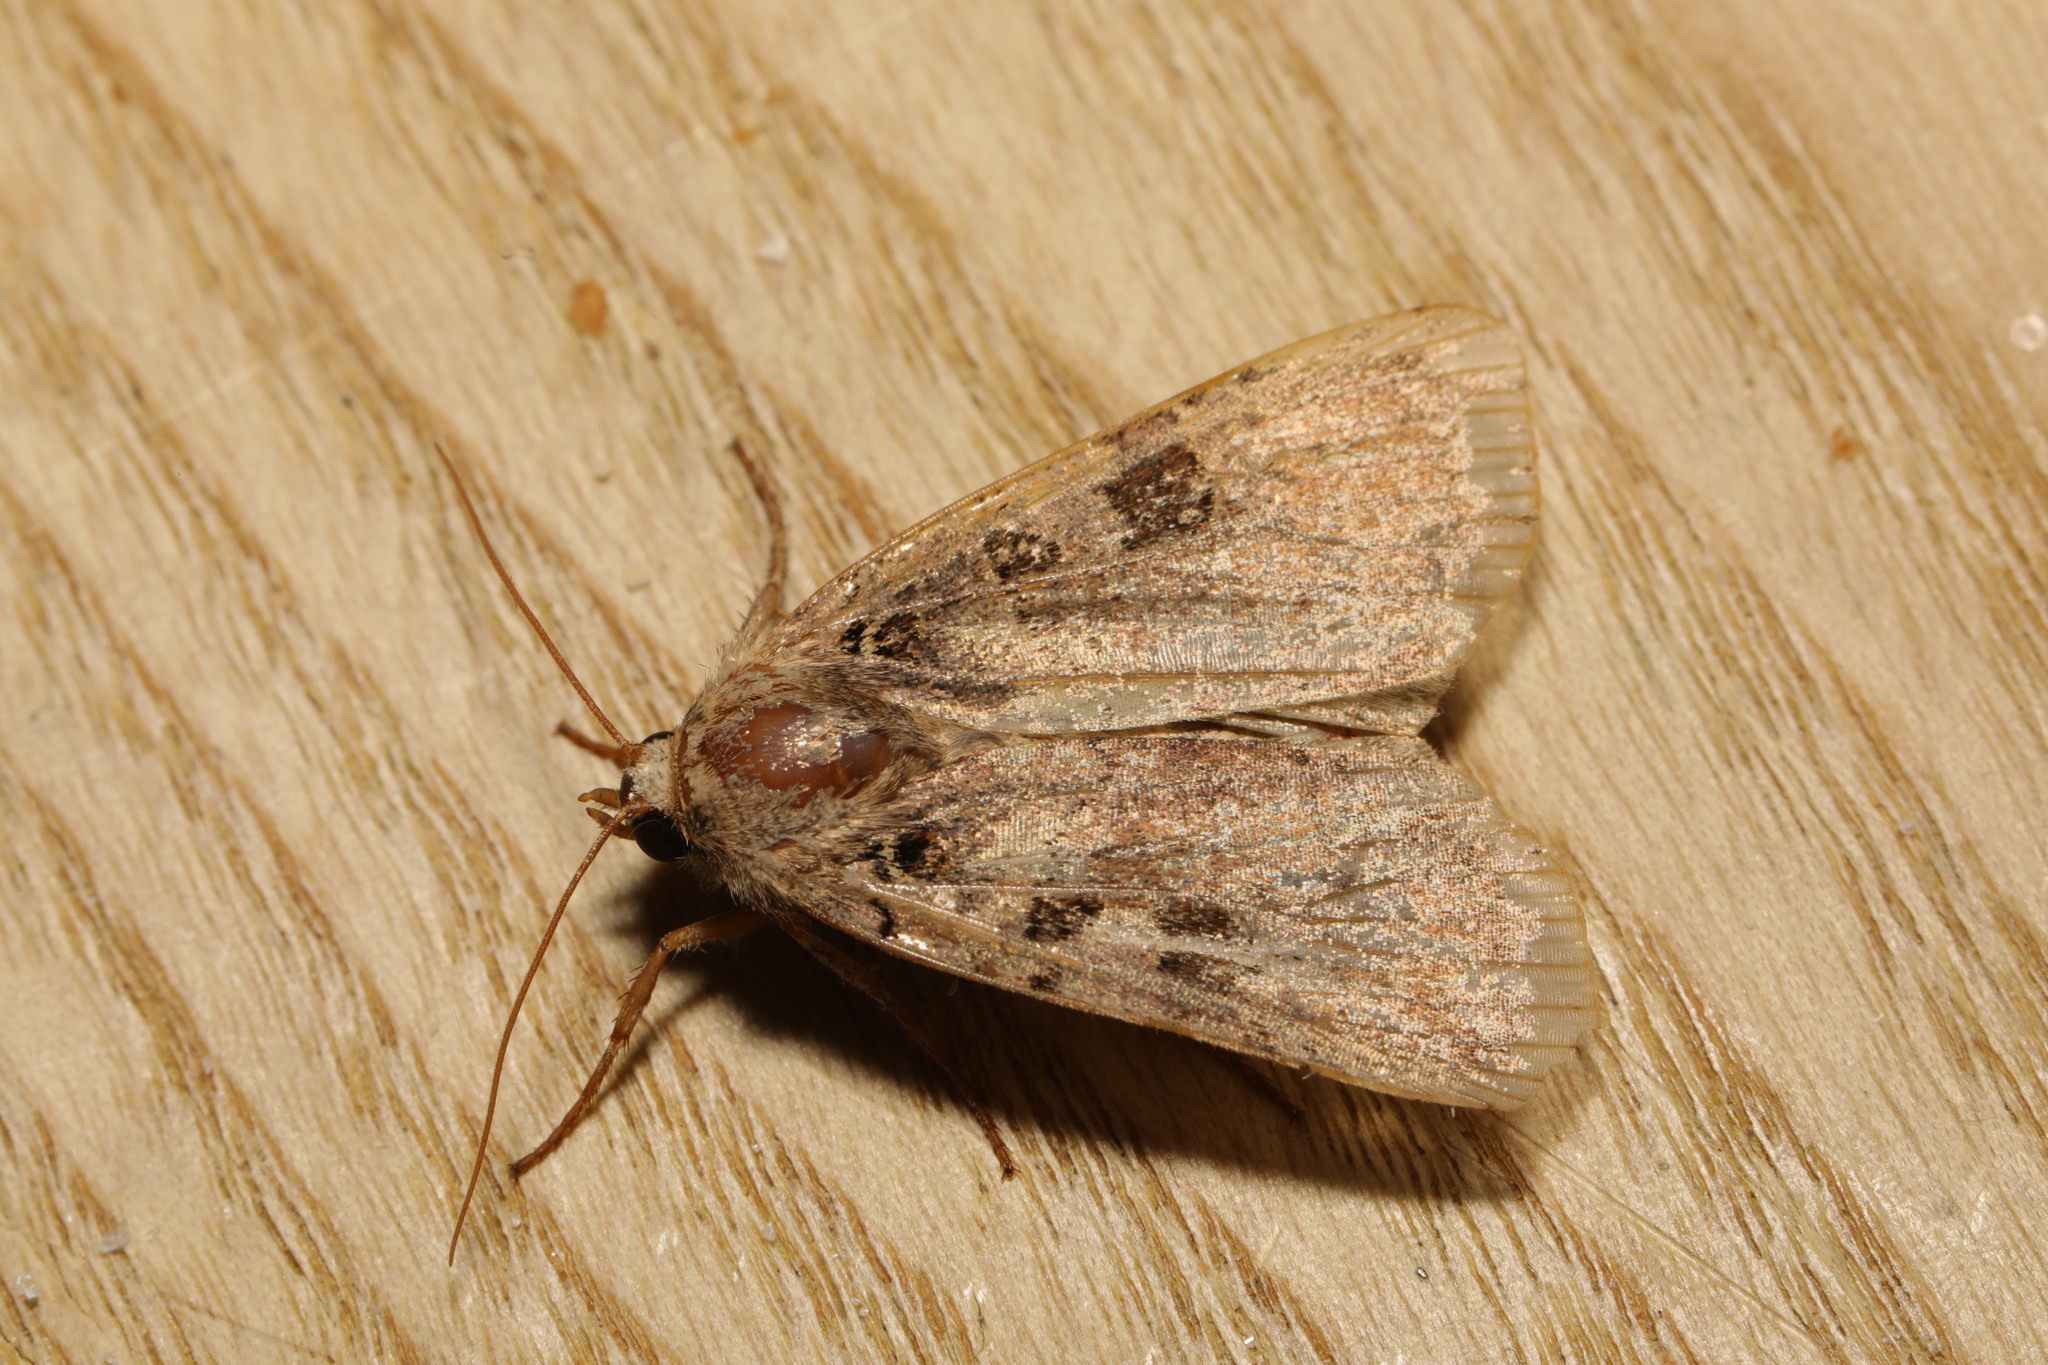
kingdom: Animalia
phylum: Arthropoda
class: Insecta
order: Lepidoptera
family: Noctuidae
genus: Xestia
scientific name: Xestia triangulum
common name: Double square-spot
